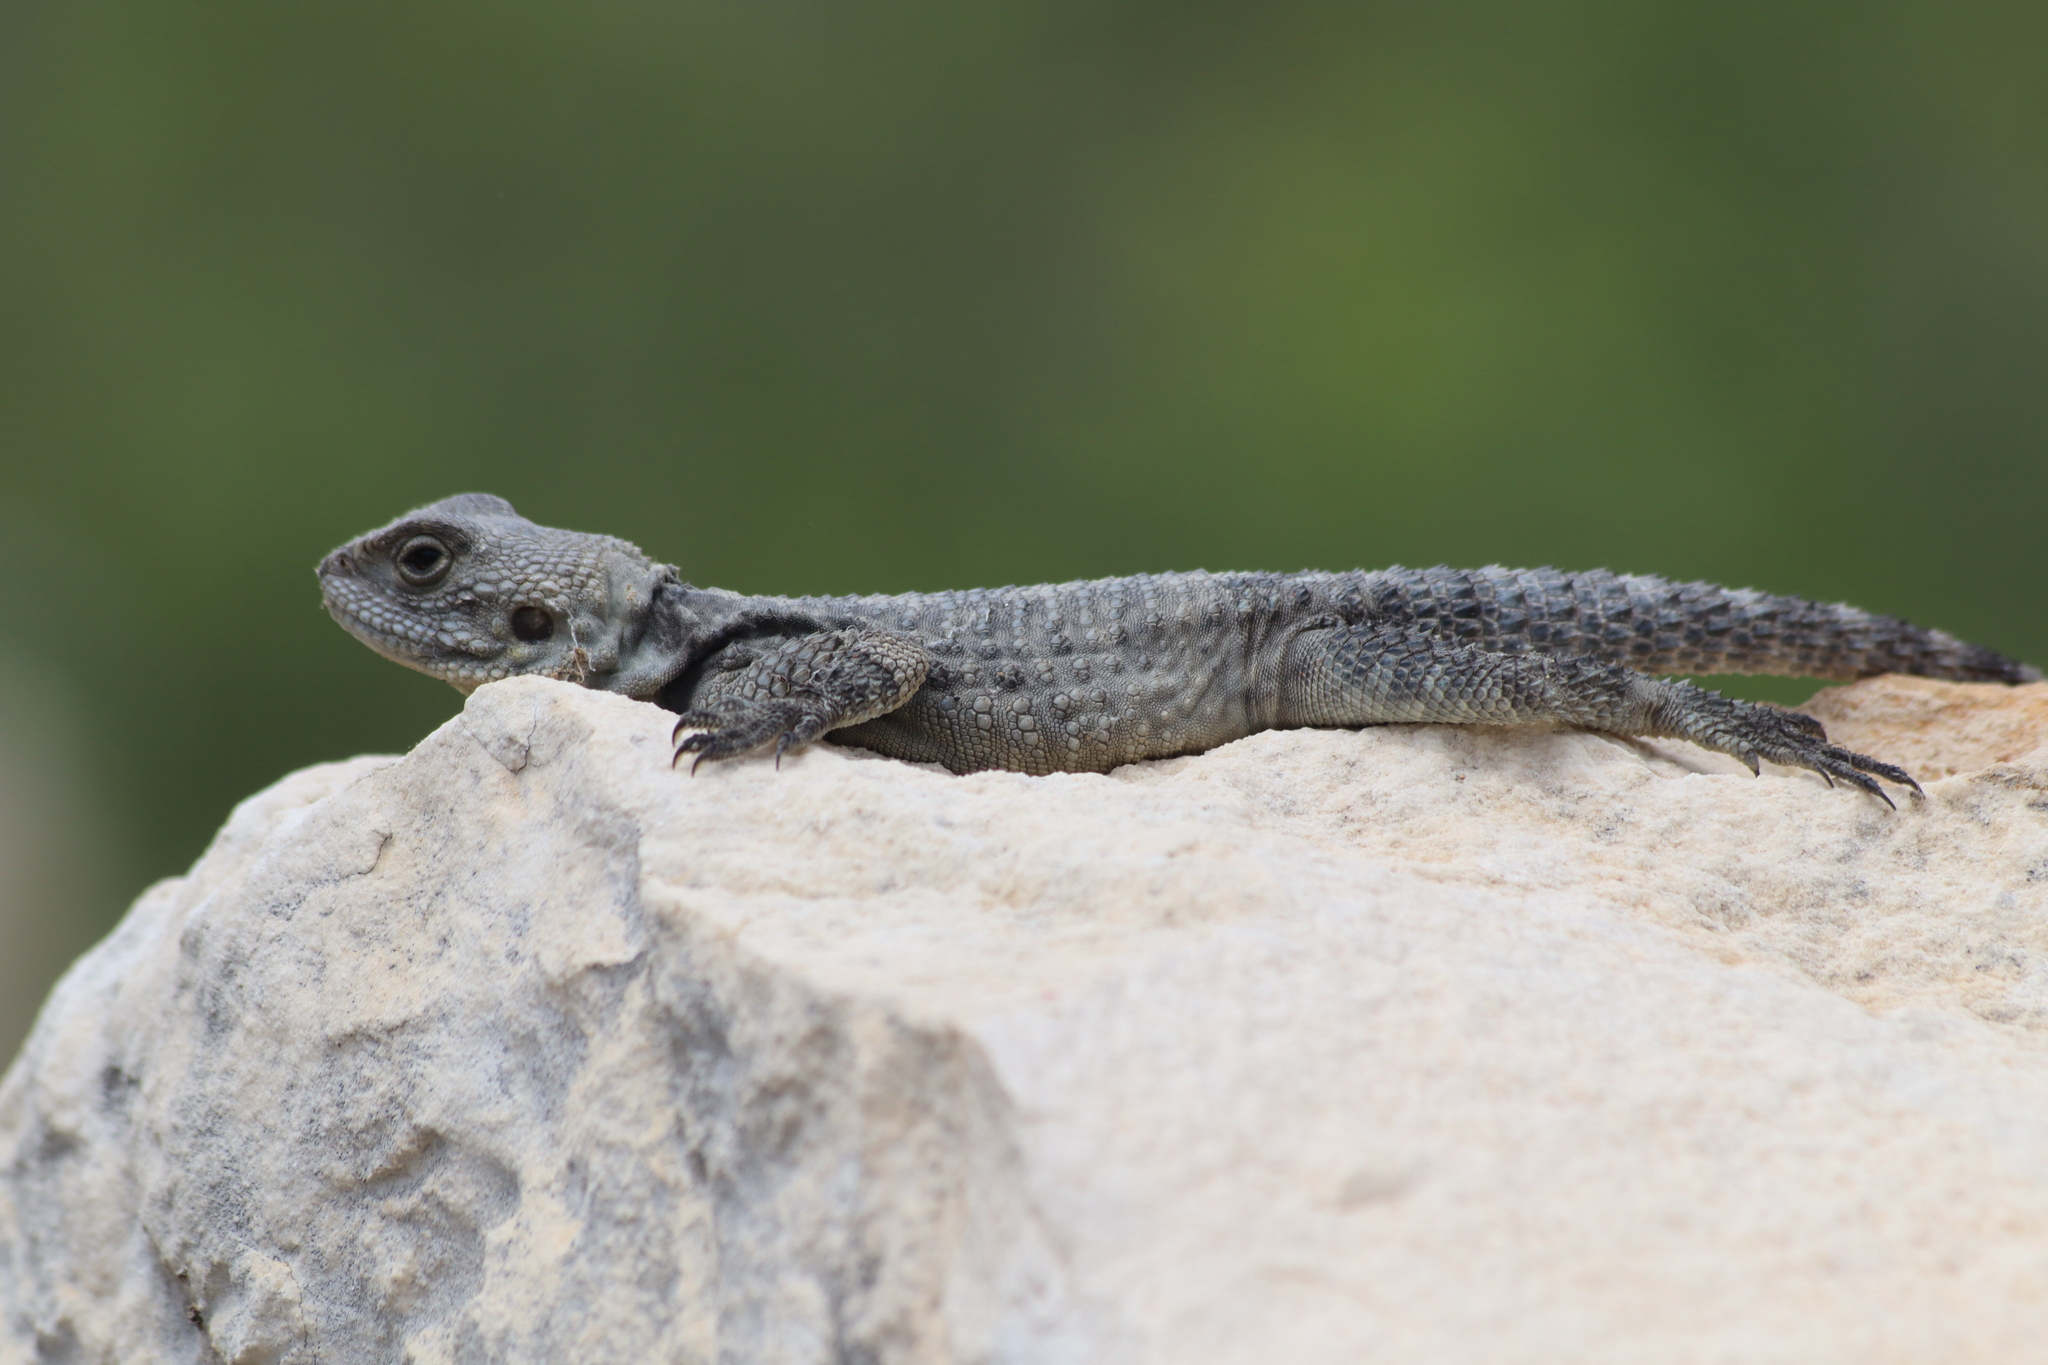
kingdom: Animalia
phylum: Chordata
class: Squamata
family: Agamidae
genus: Stellagama
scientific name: Stellagama stellio
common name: Starred agama
